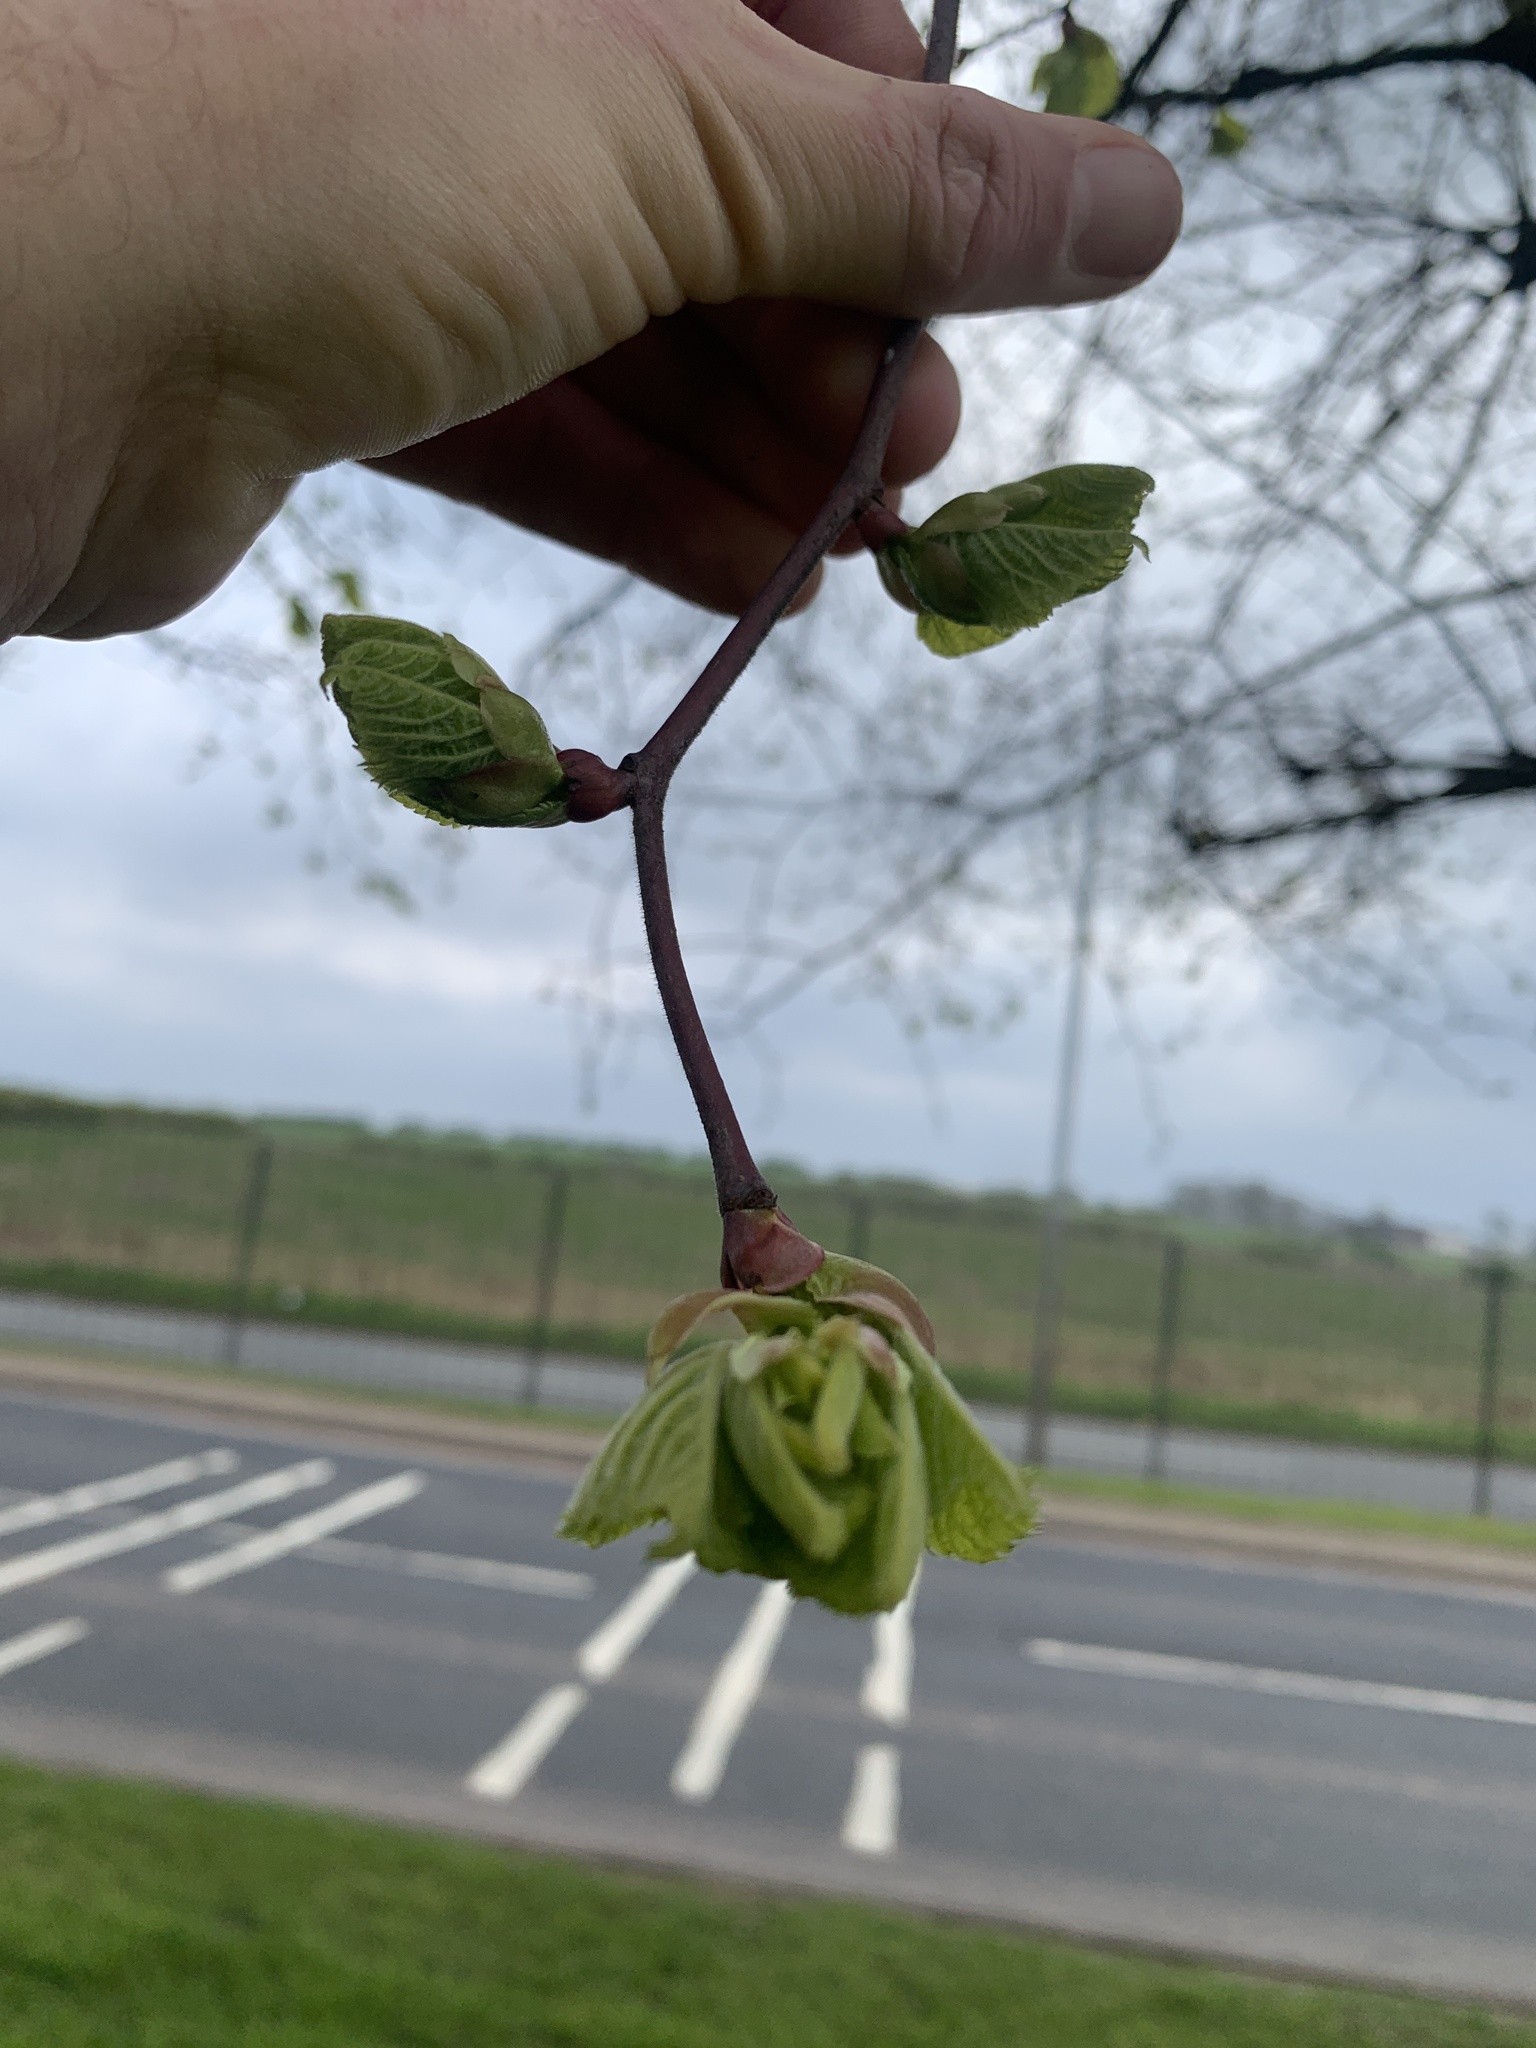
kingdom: Plantae
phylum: Tracheophyta
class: Magnoliopsida
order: Fagales
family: Betulaceae
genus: Corylus
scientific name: Corylus avellana
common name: European hazel
